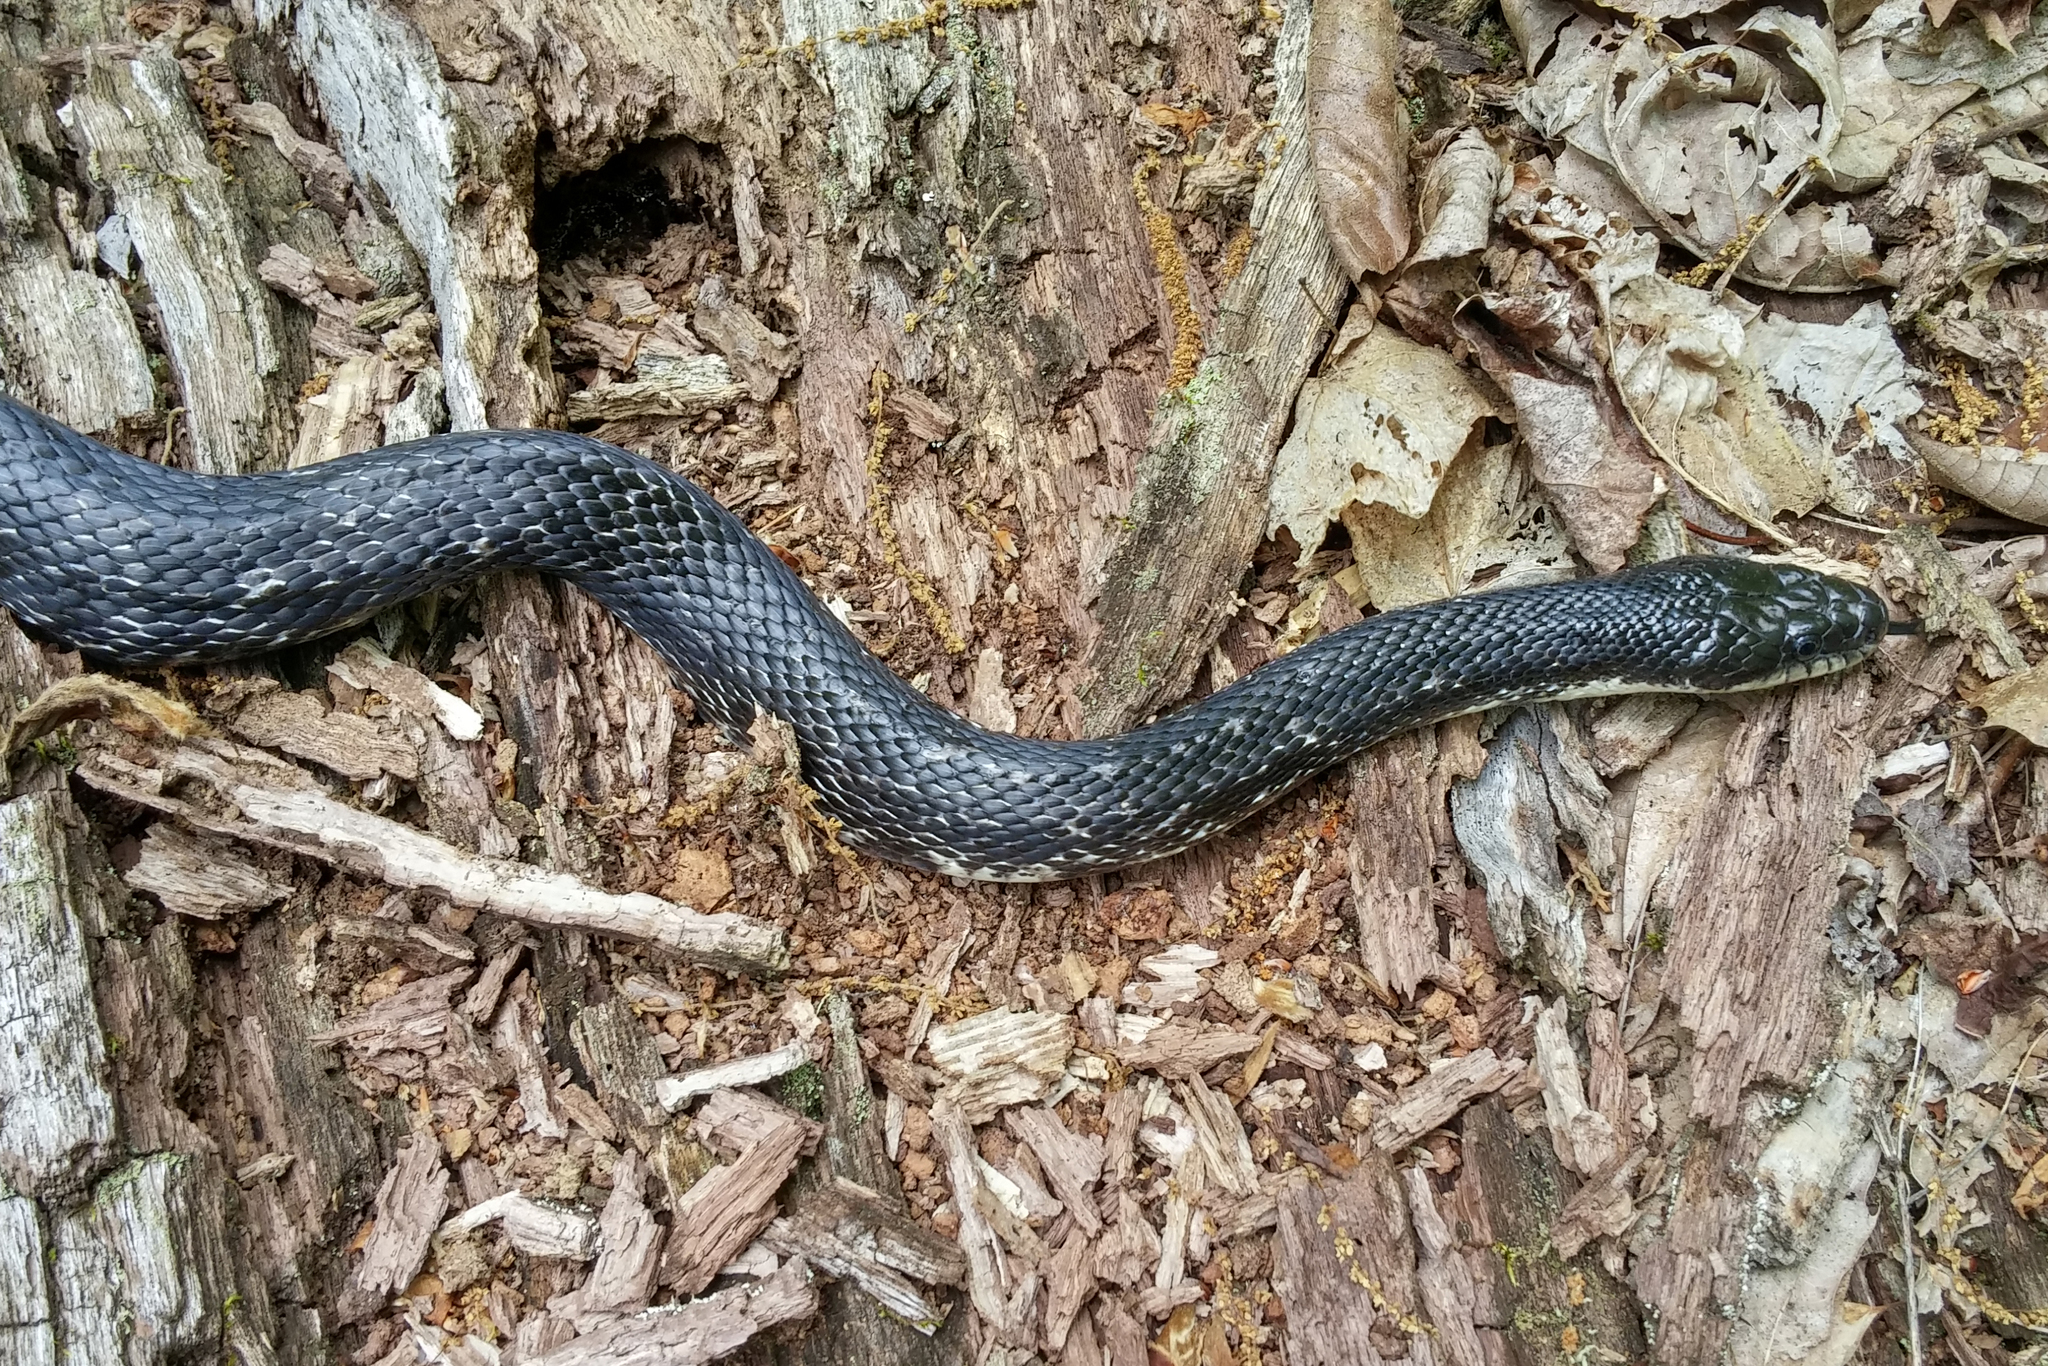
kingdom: Animalia
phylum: Chordata
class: Squamata
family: Colubridae
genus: Pantherophis
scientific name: Pantherophis alleghaniensis
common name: Eastern rat snake
